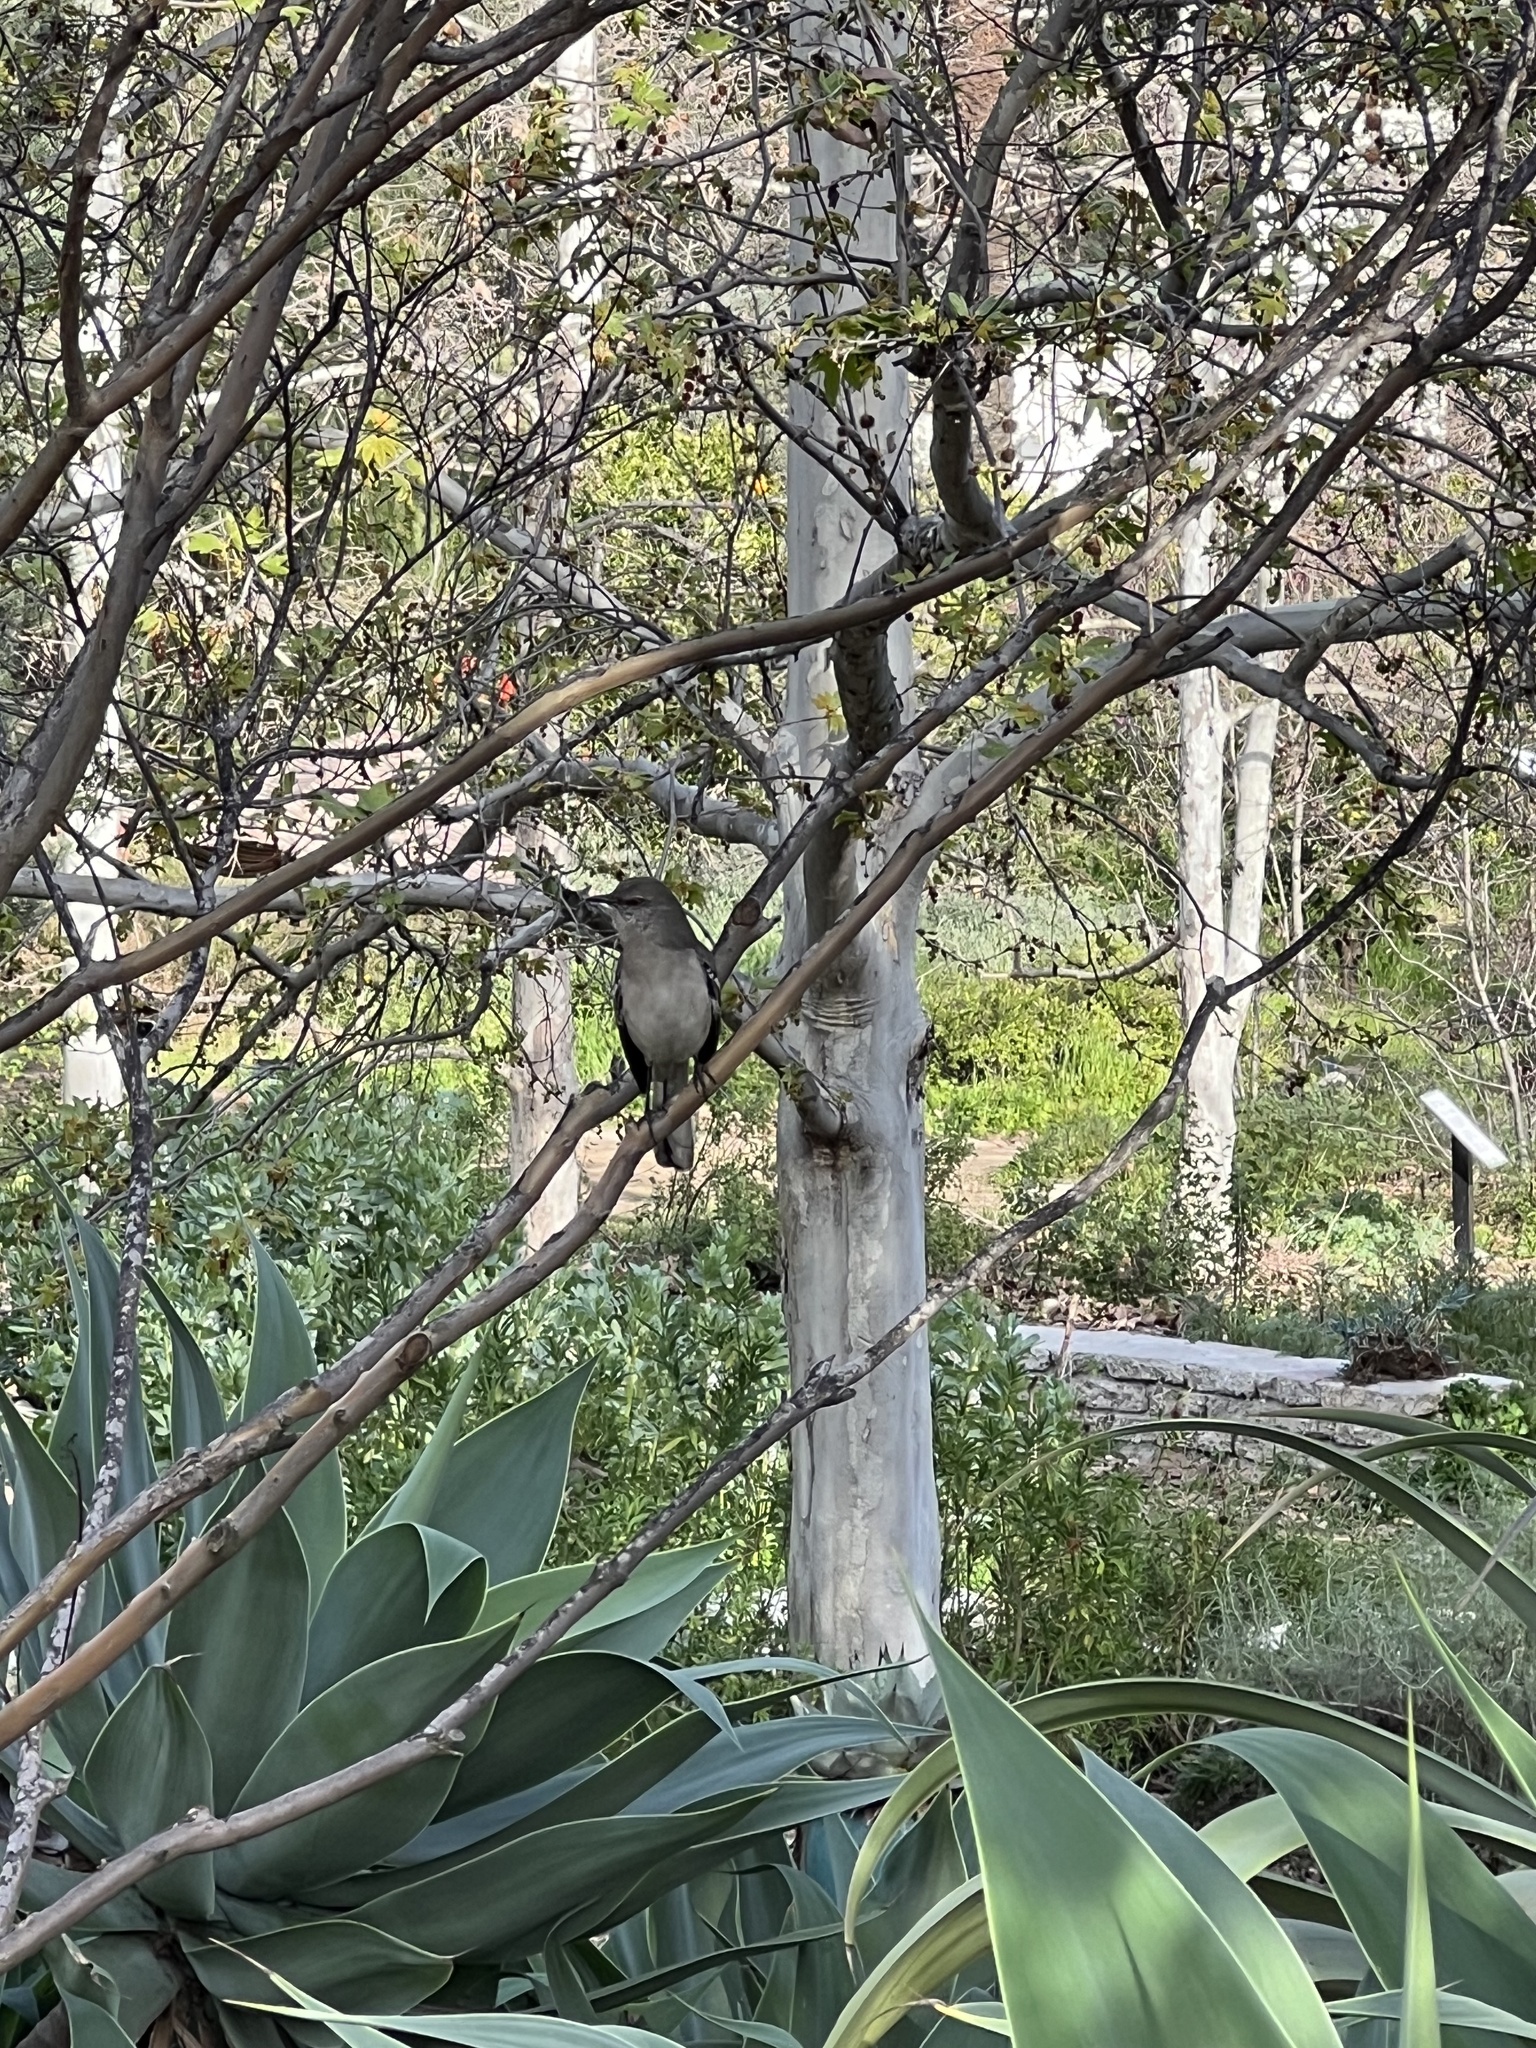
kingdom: Animalia
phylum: Chordata
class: Aves
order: Passeriformes
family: Mimidae
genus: Mimus
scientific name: Mimus polyglottos
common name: Northern mockingbird
